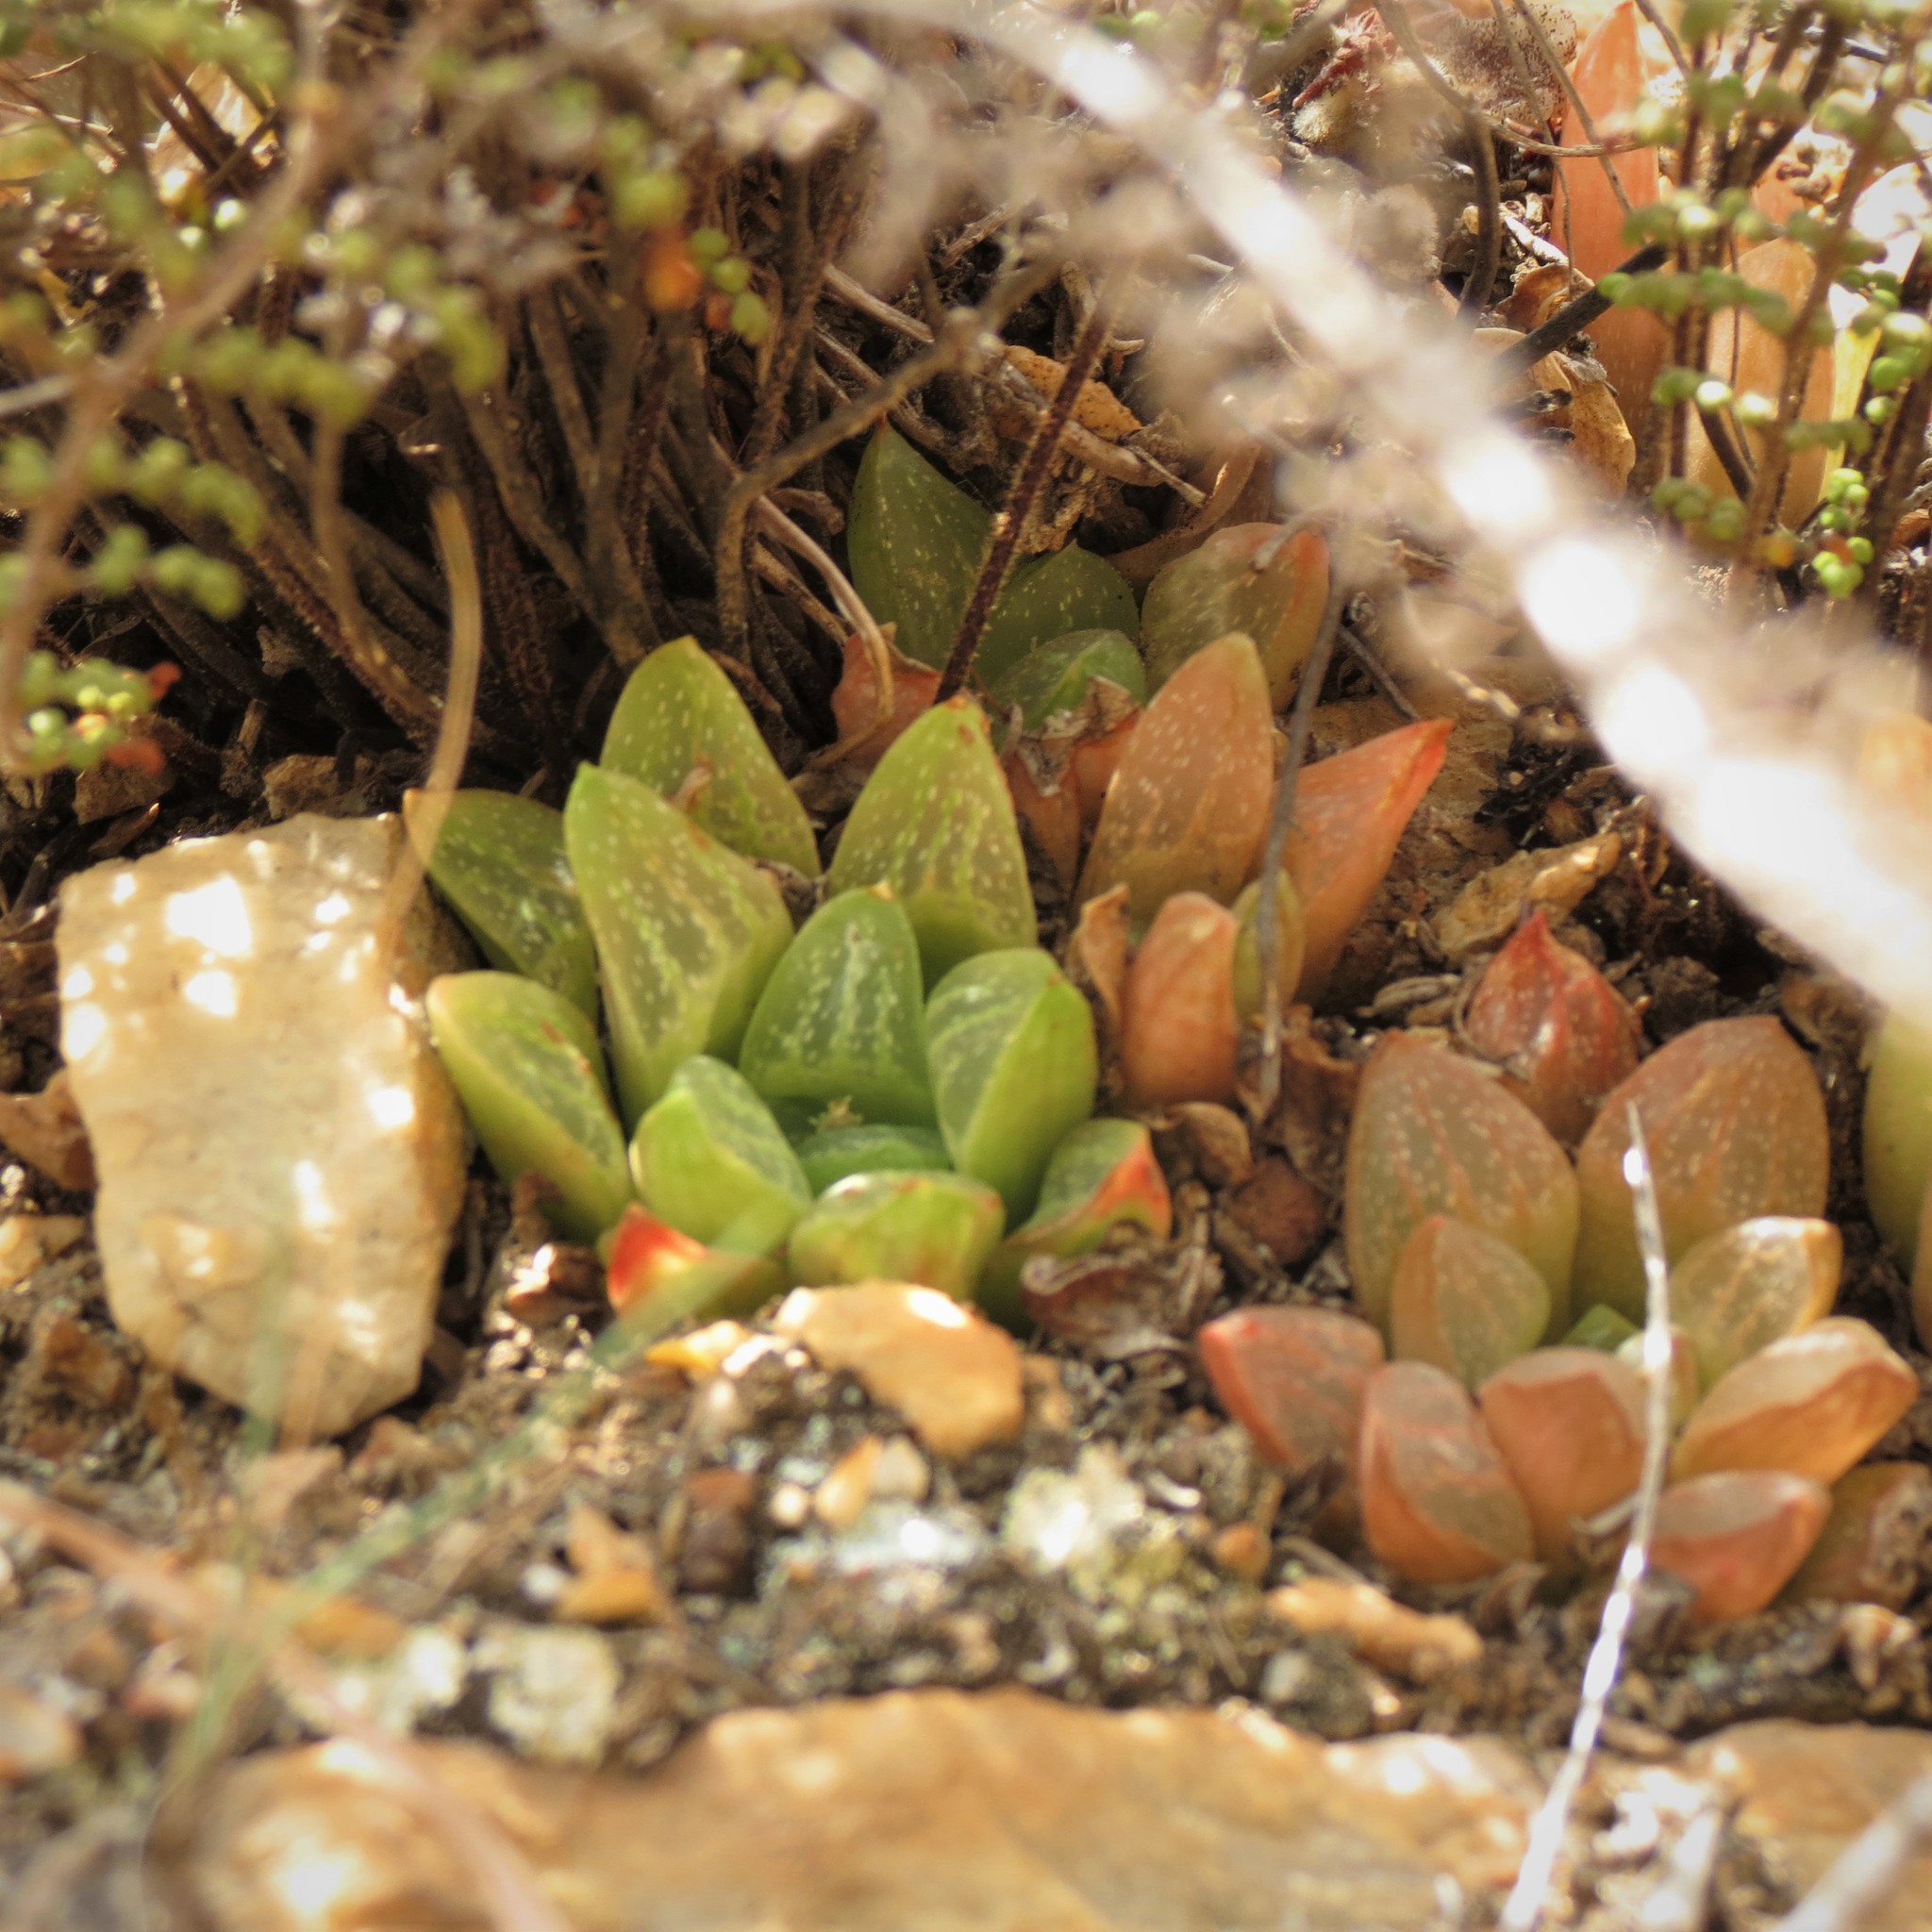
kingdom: Plantae
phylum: Tracheophyta
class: Liliopsida
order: Asparagales
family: Asphodelaceae
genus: Haworthia
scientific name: Haworthia turgida
